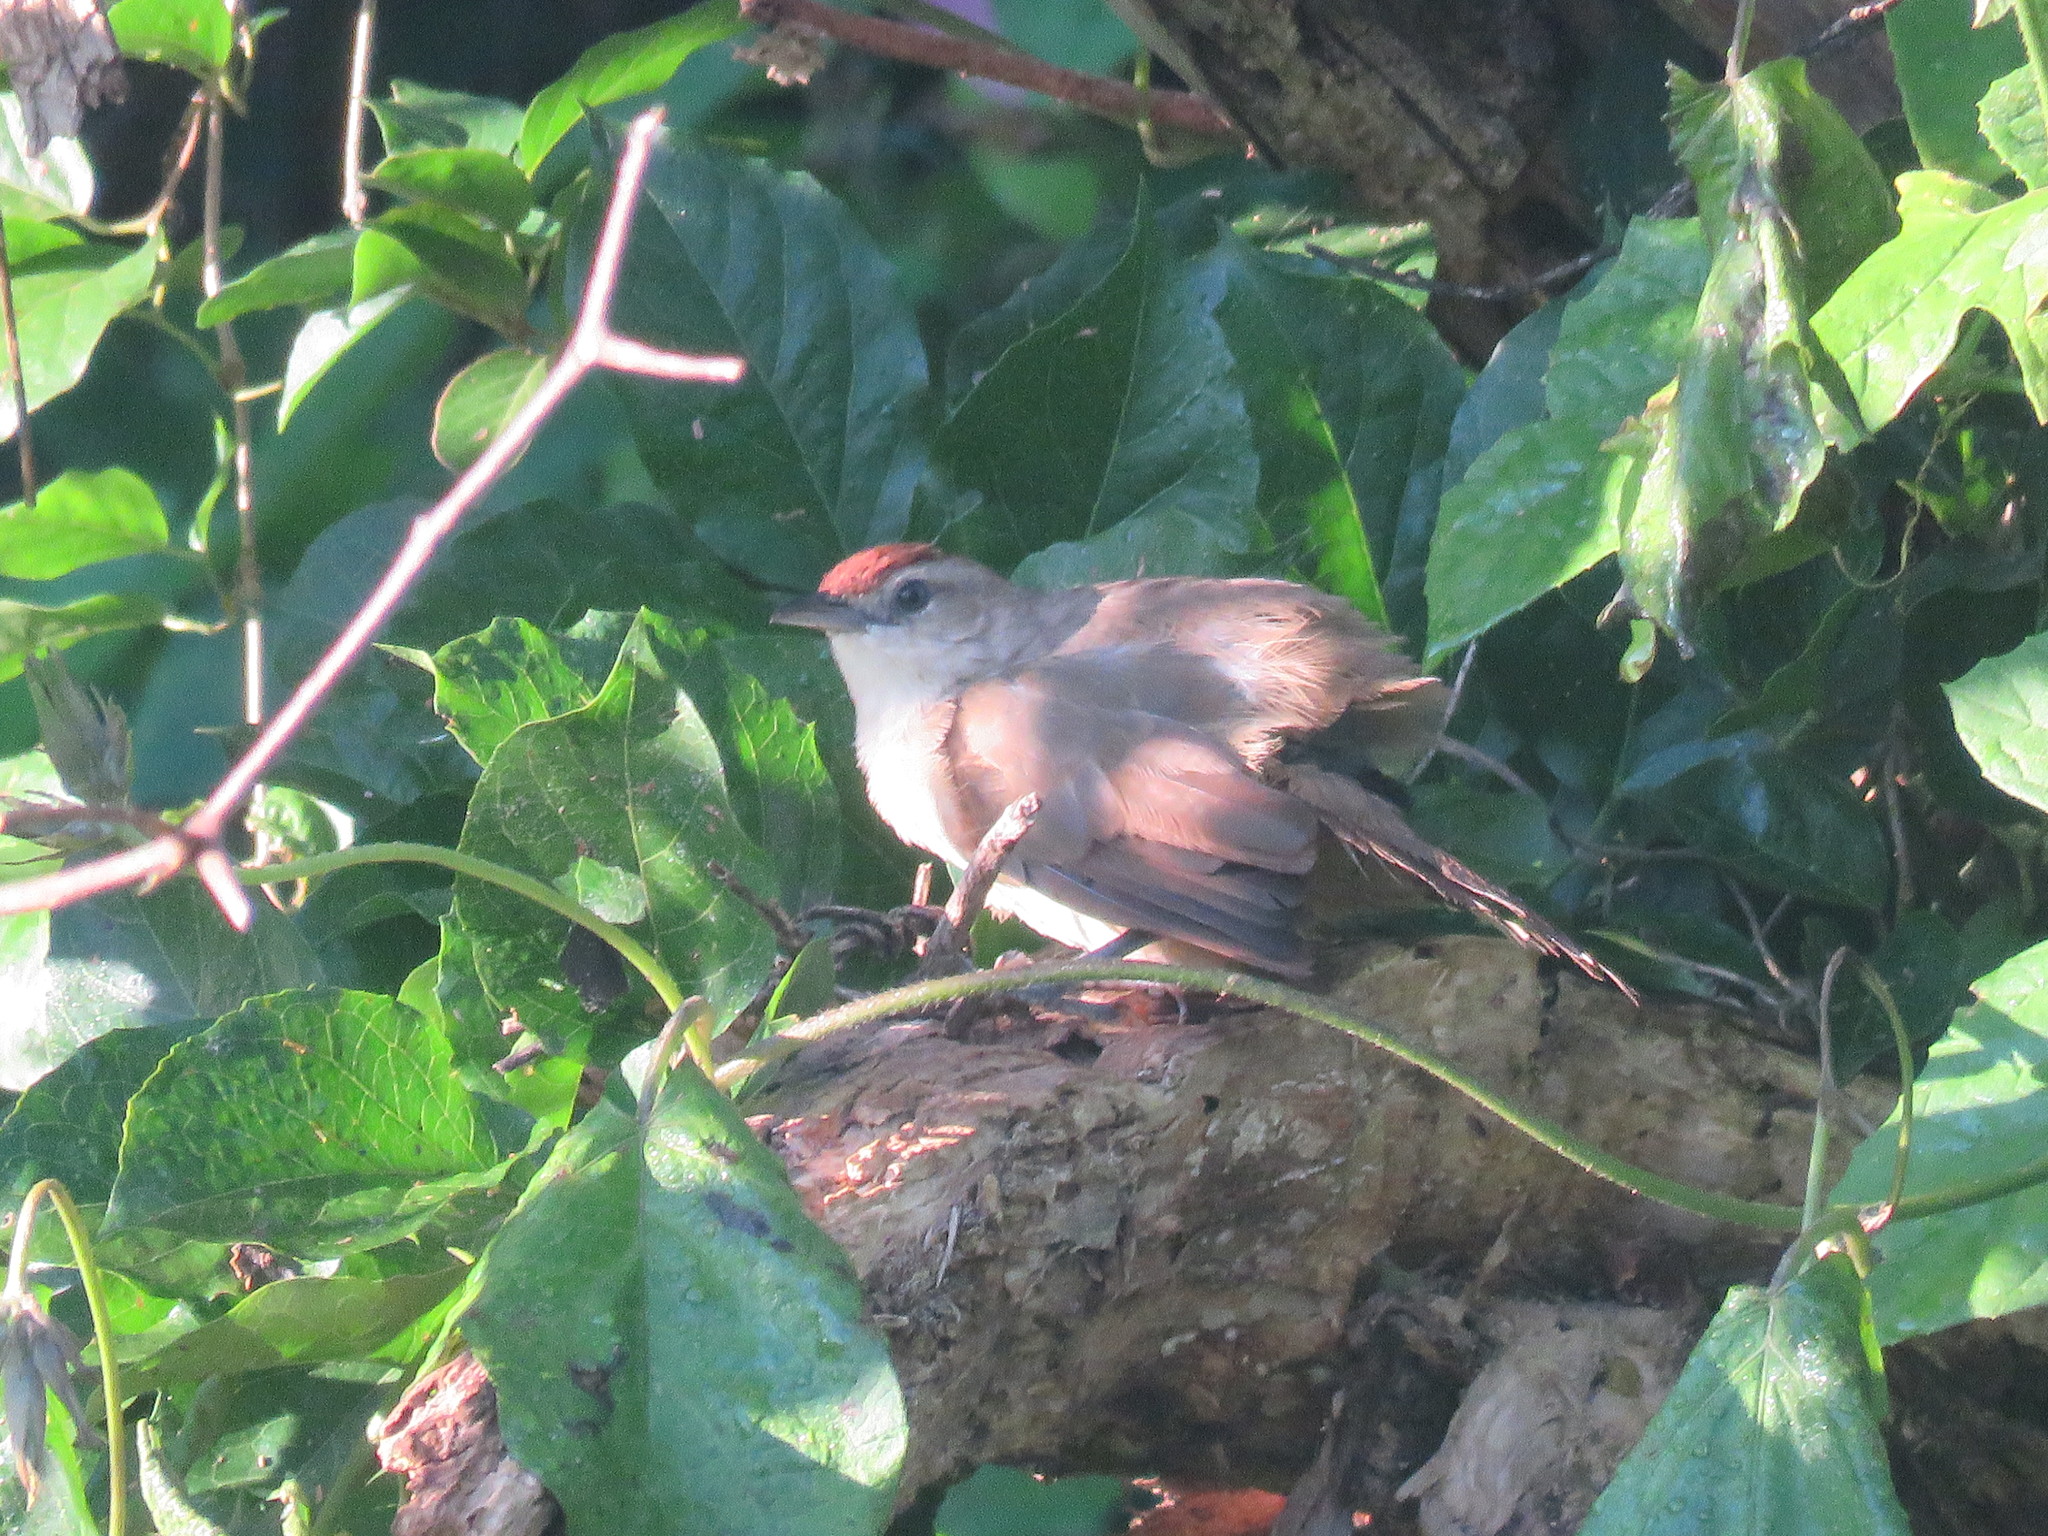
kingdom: Animalia
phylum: Chordata
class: Aves
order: Passeriformes
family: Furnariidae
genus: Phacellodomus
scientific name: Phacellodomus rufifrons
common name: Rufous-fronted thornbird
